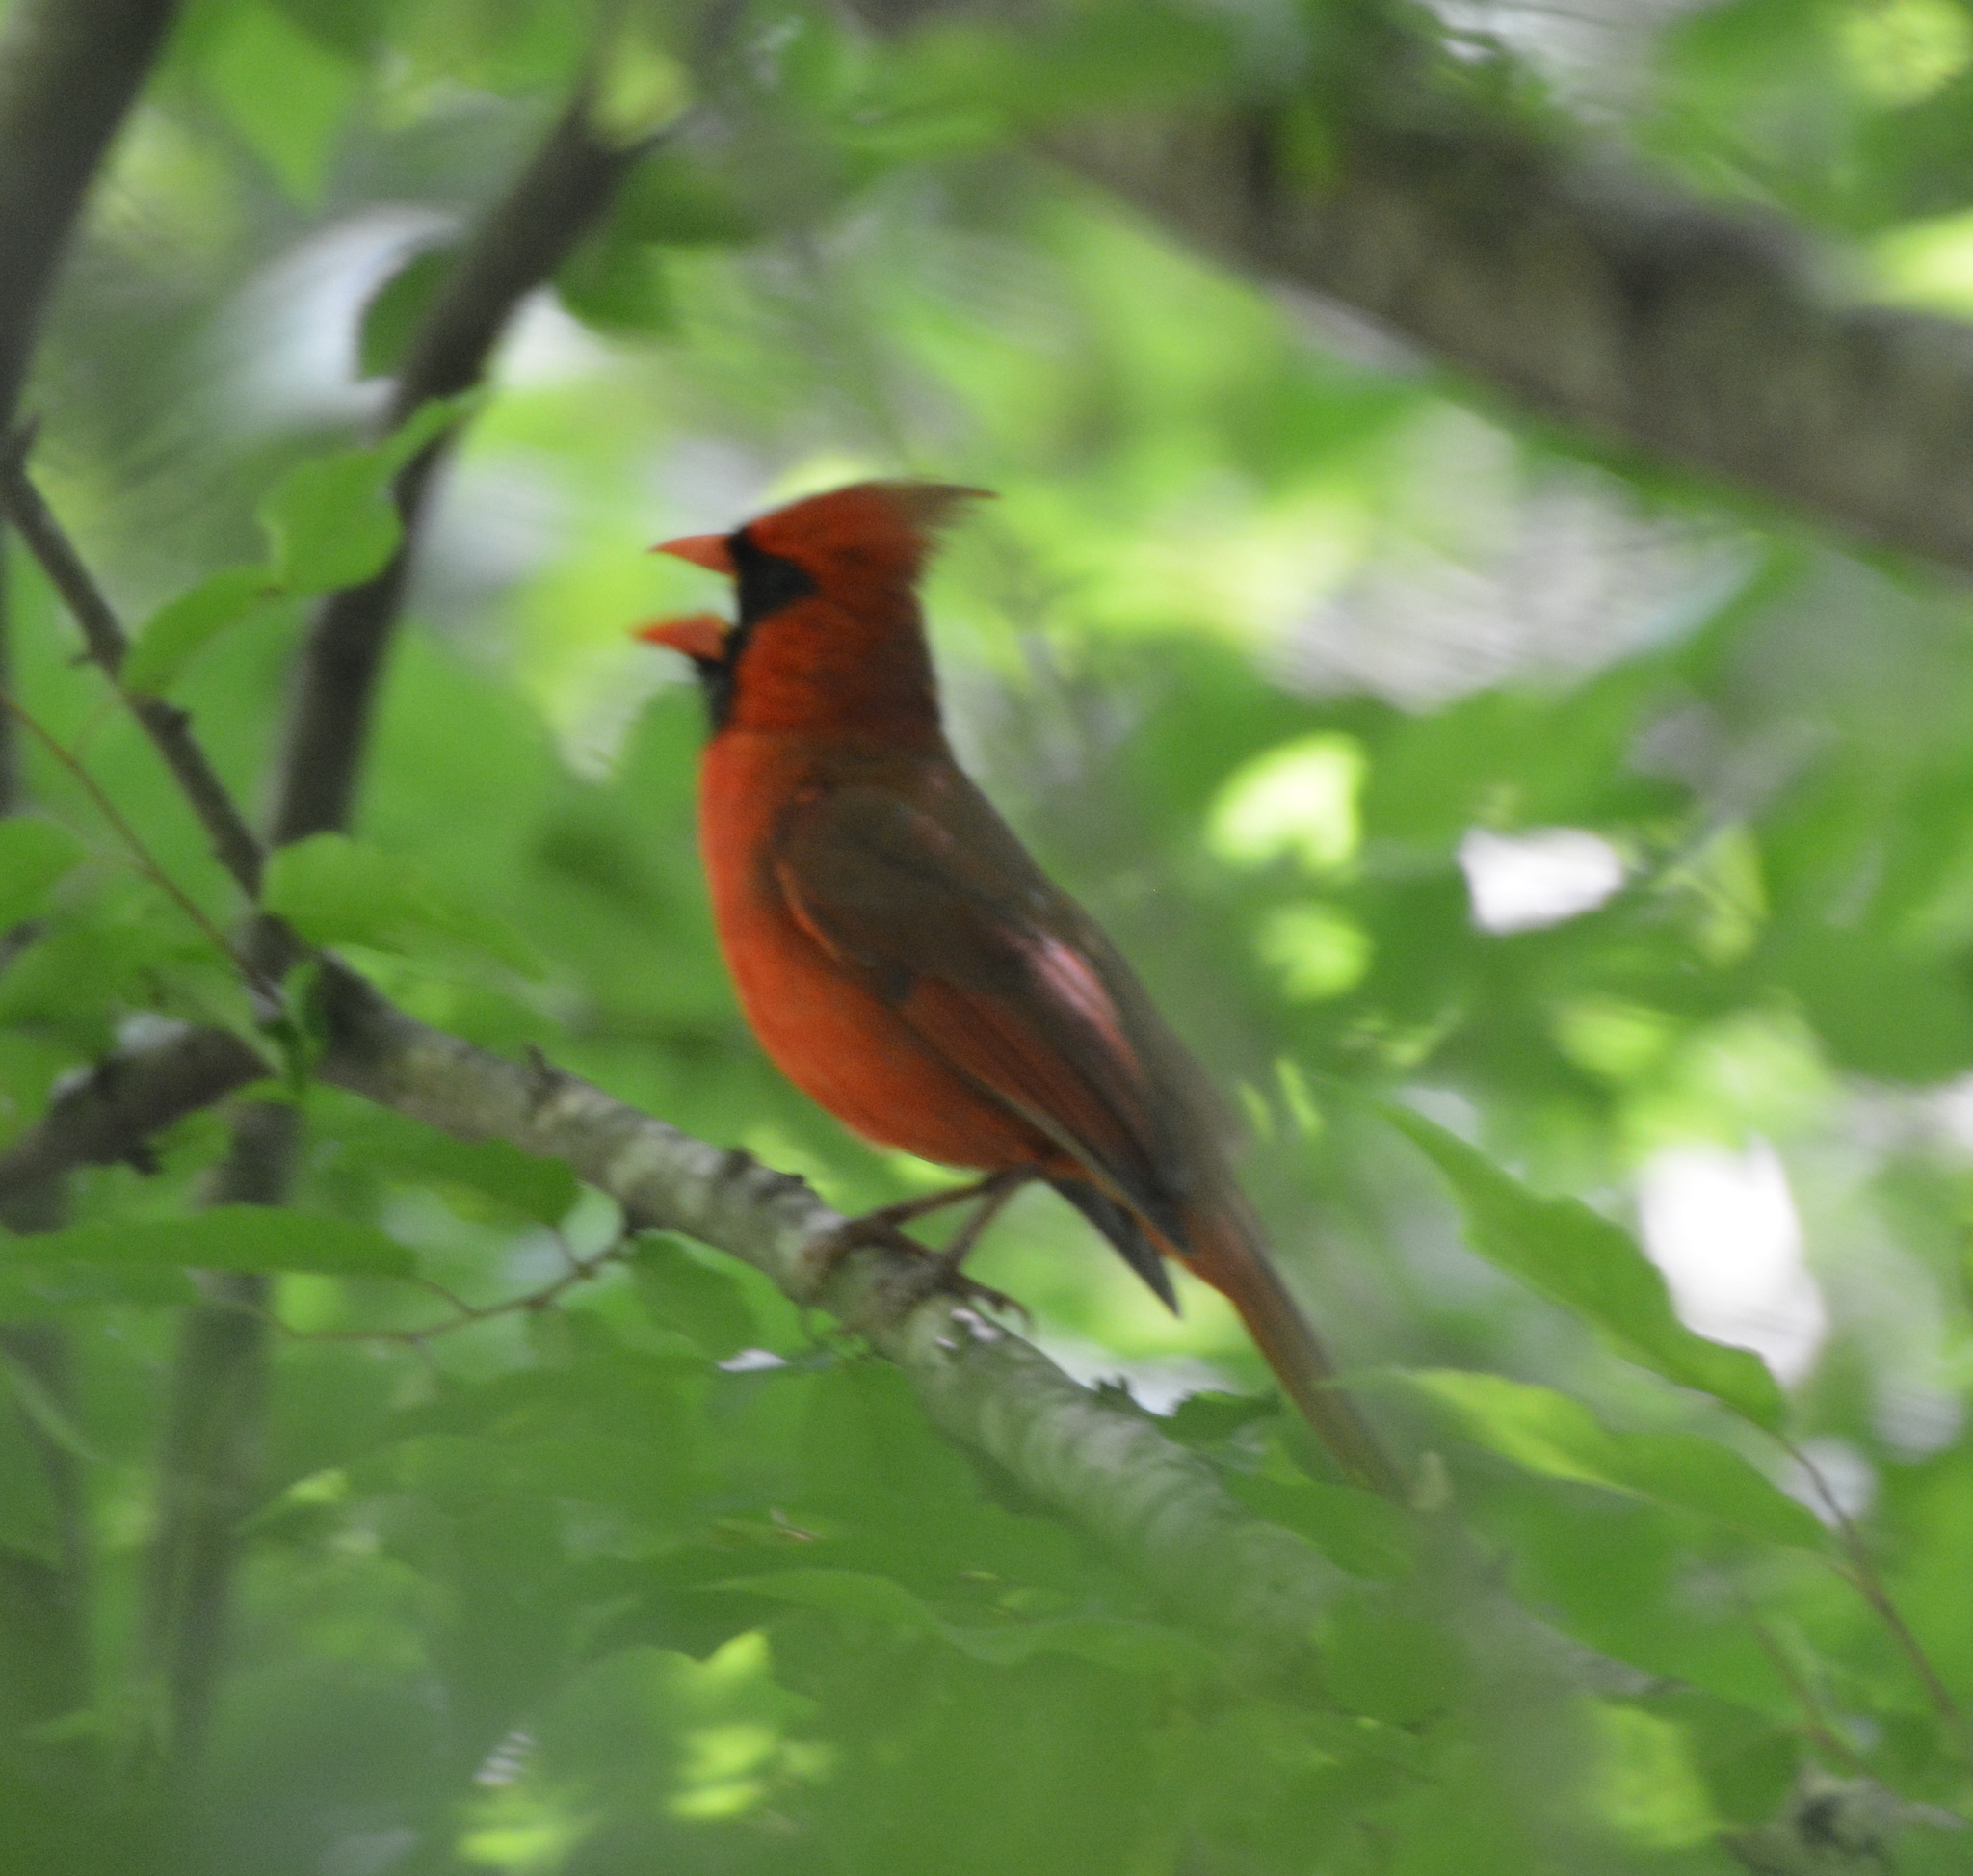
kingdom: Animalia
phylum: Chordata
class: Aves
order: Passeriformes
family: Cardinalidae
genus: Cardinalis
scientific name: Cardinalis cardinalis
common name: Northern cardinal
